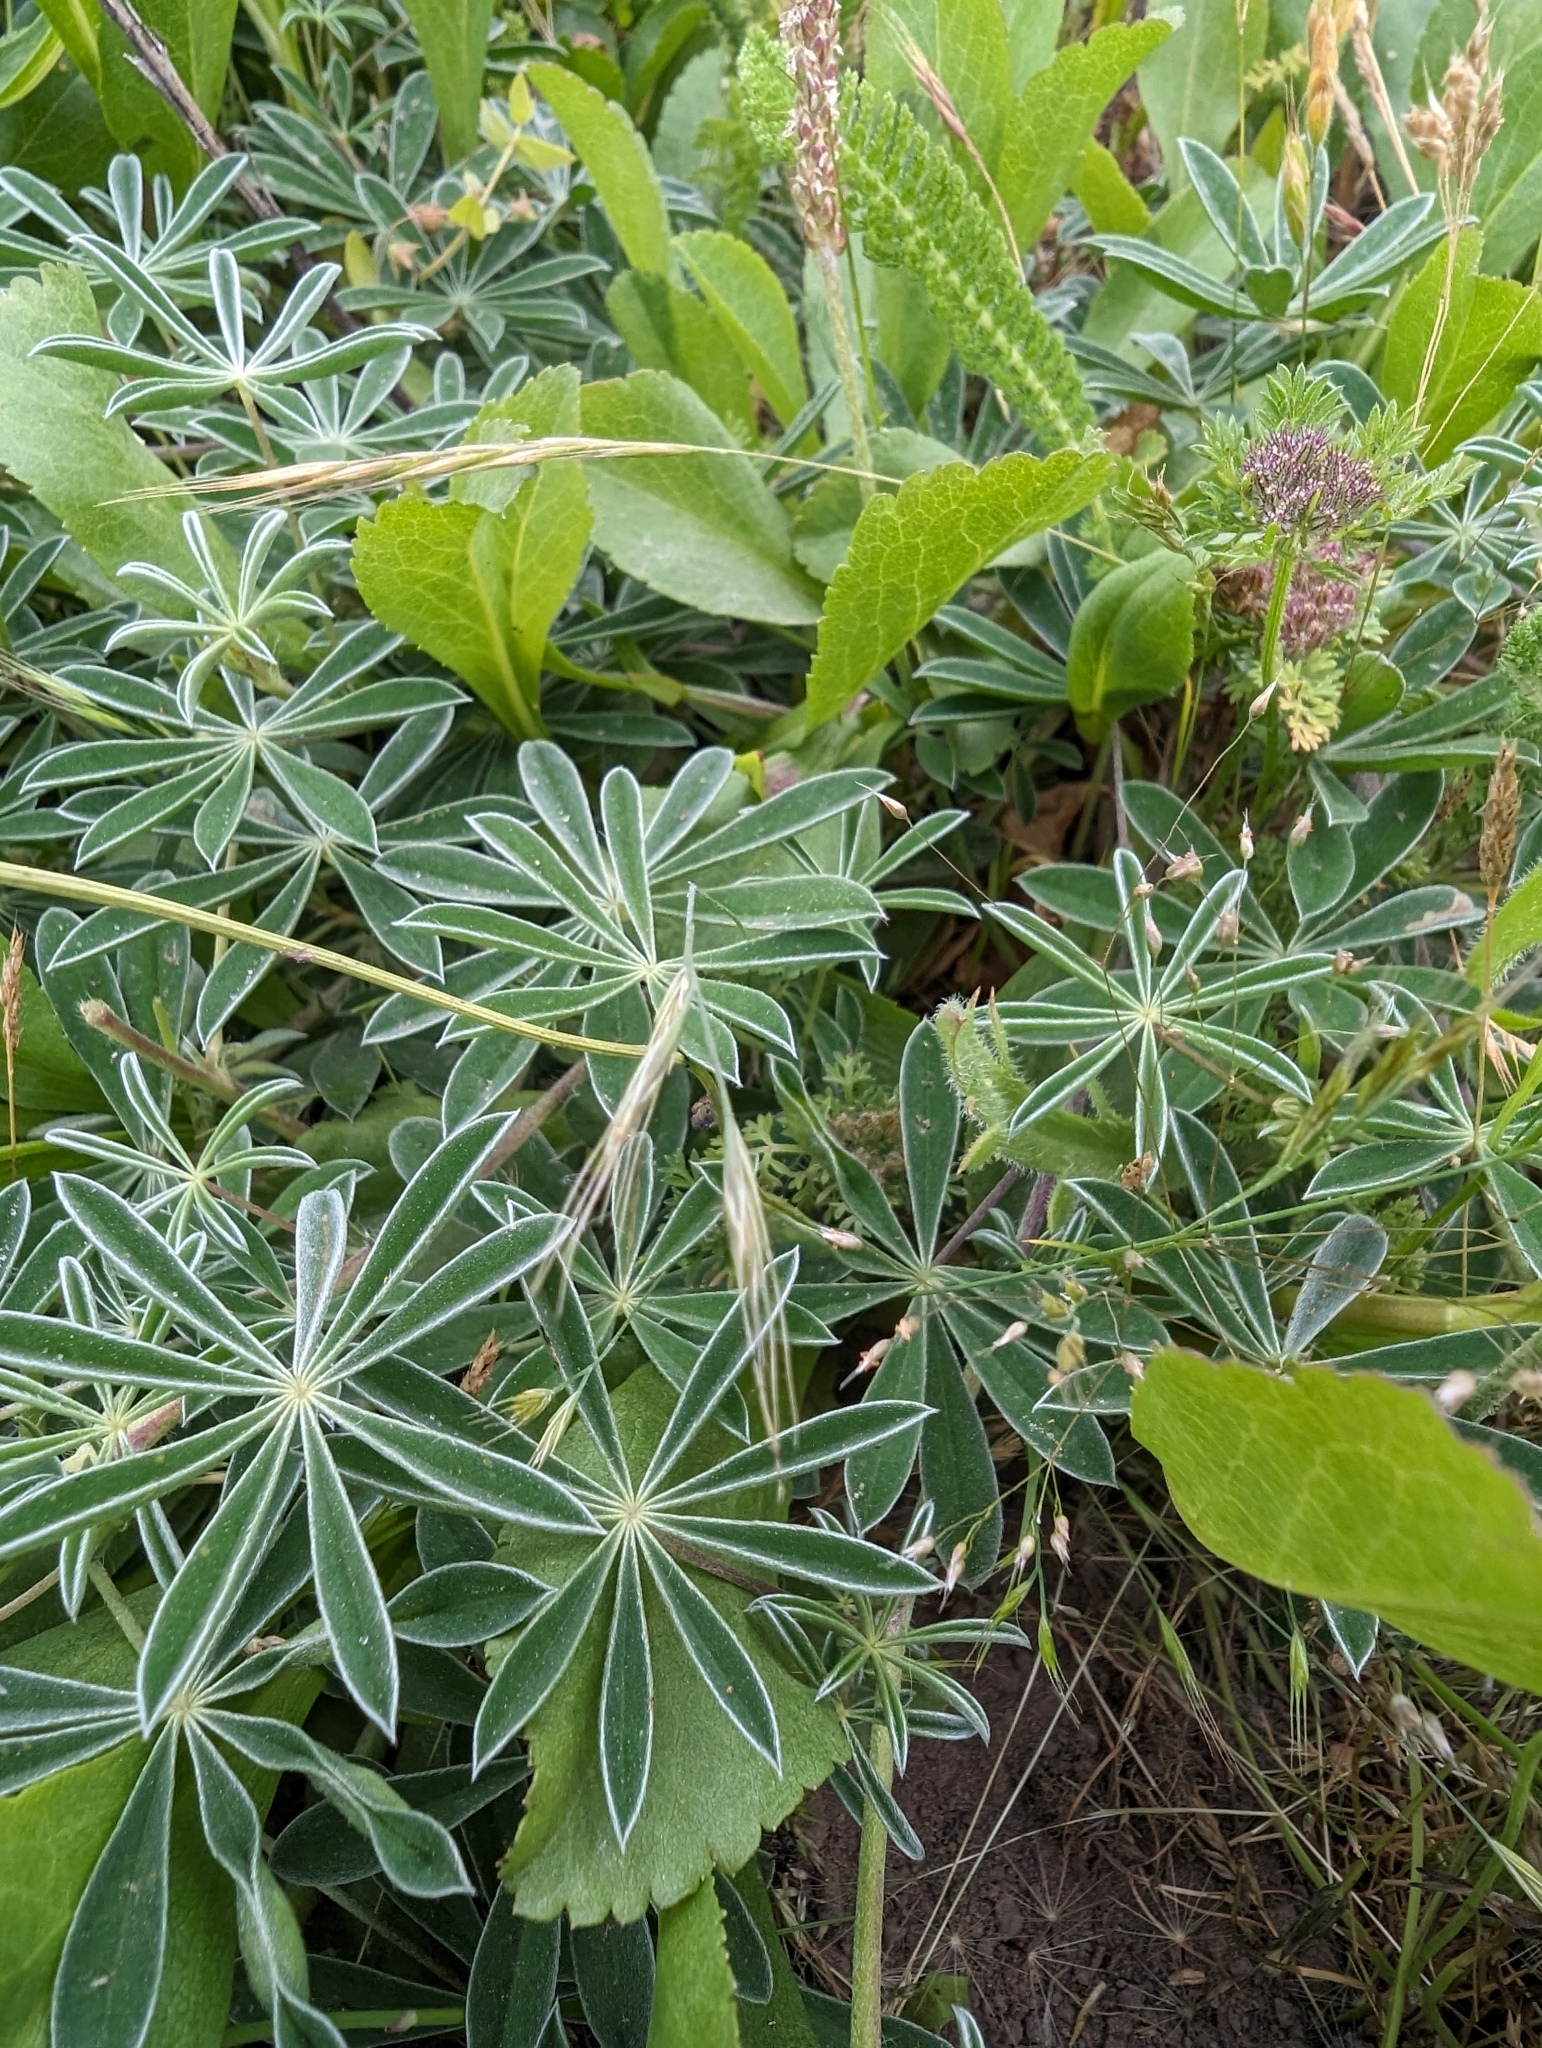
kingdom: Plantae
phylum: Tracheophyta
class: Magnoliopsida
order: Fabales
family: Fabaceae
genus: Lupinus
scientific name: Lupinus variicolor
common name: Lindley's varied lupine
